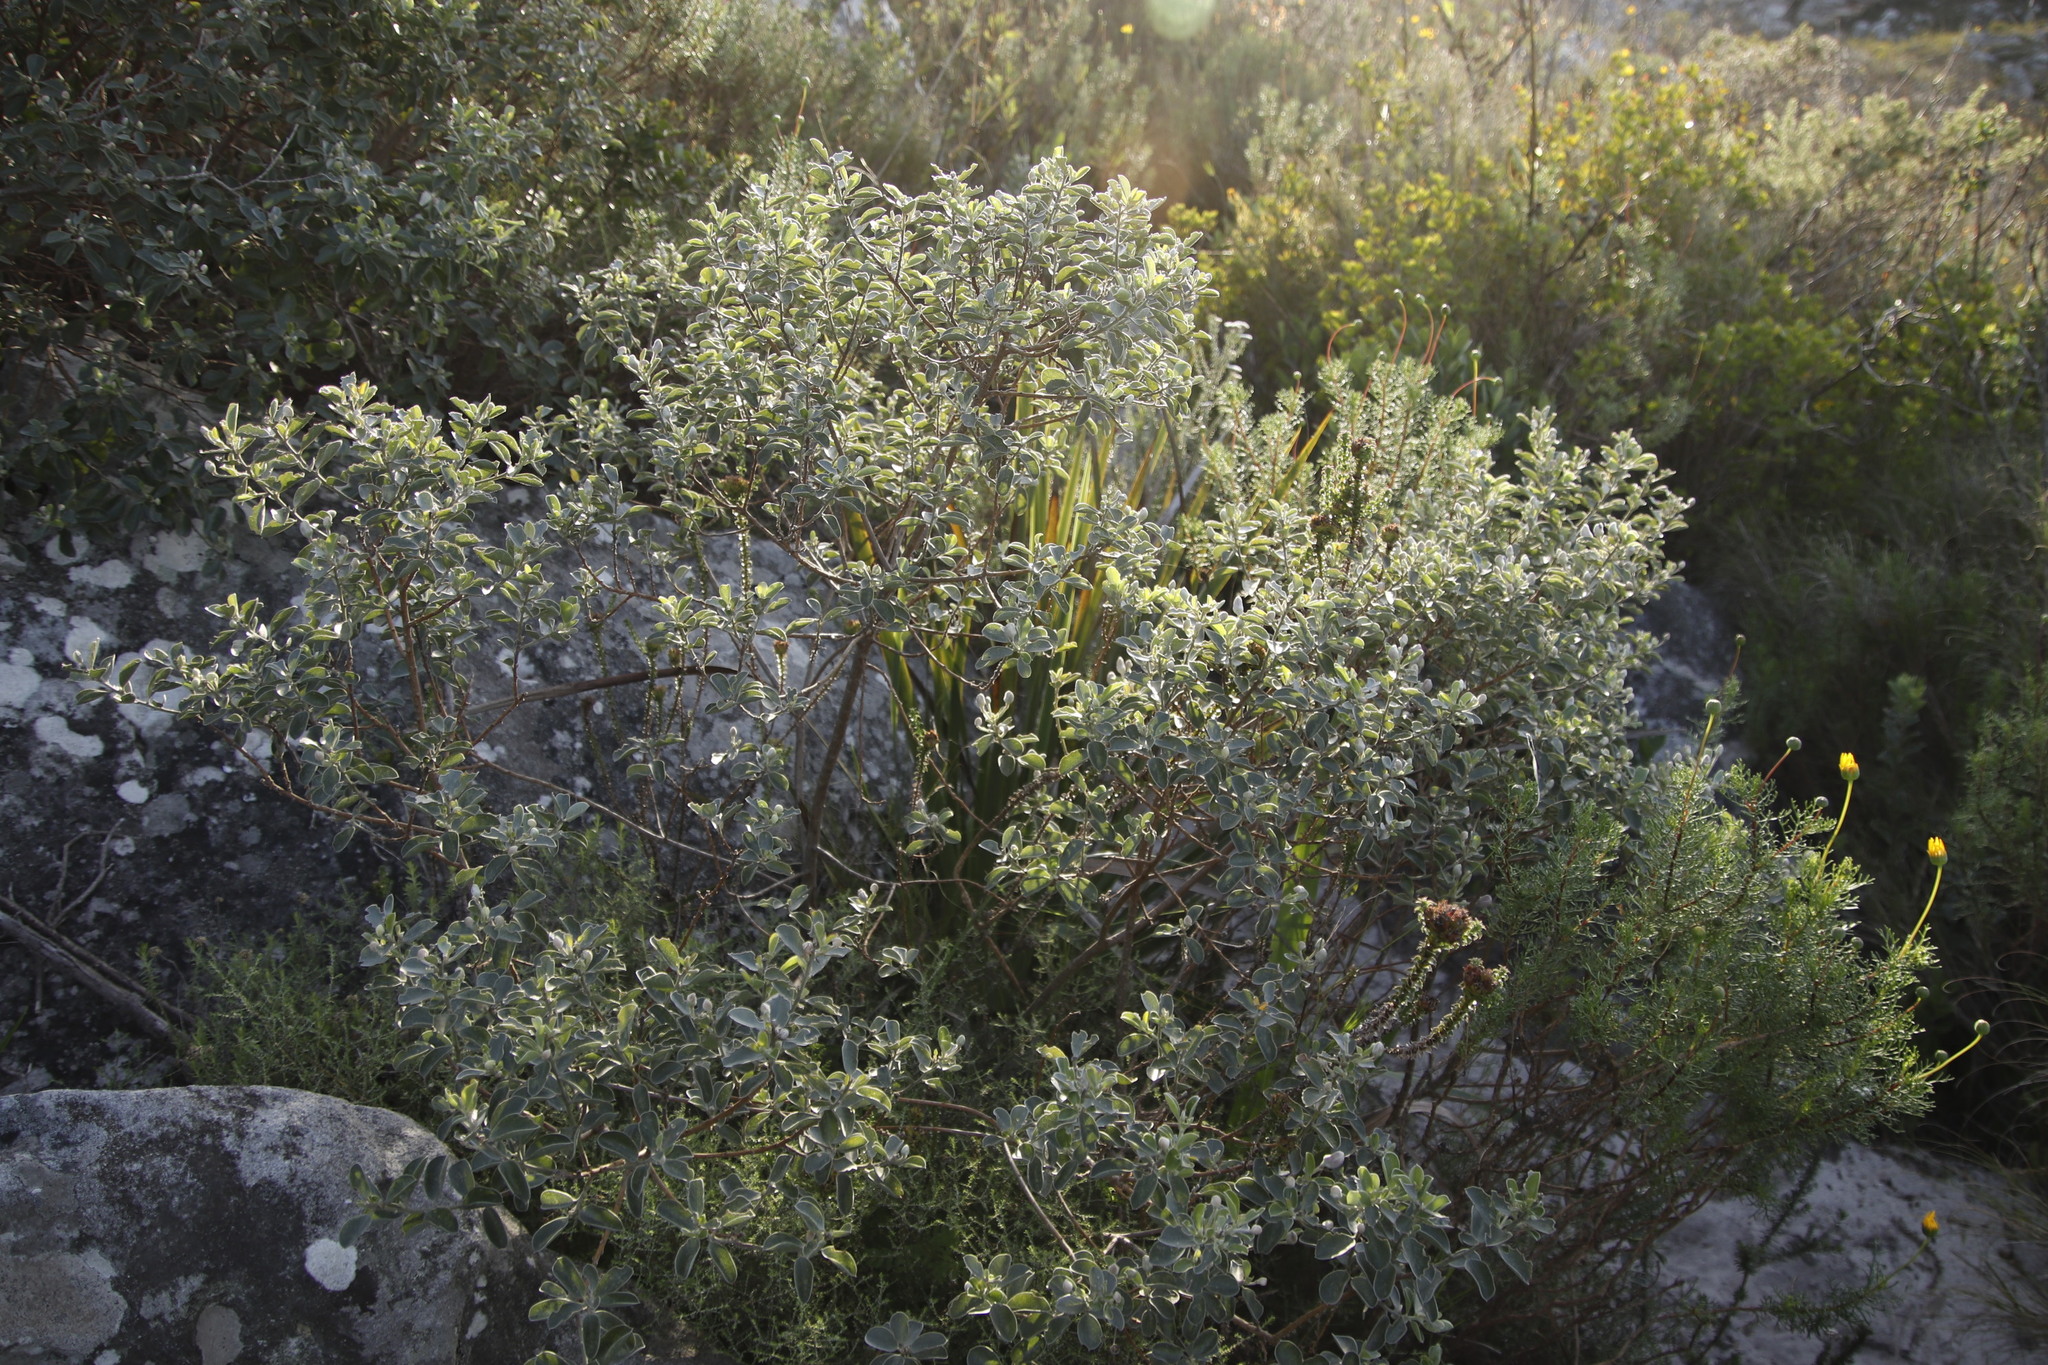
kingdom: Plantae
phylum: Tracheophyta
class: Magnoliopsida
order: Fabales
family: Fabaceae
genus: Podalyria
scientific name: Podalyria calyptrata
